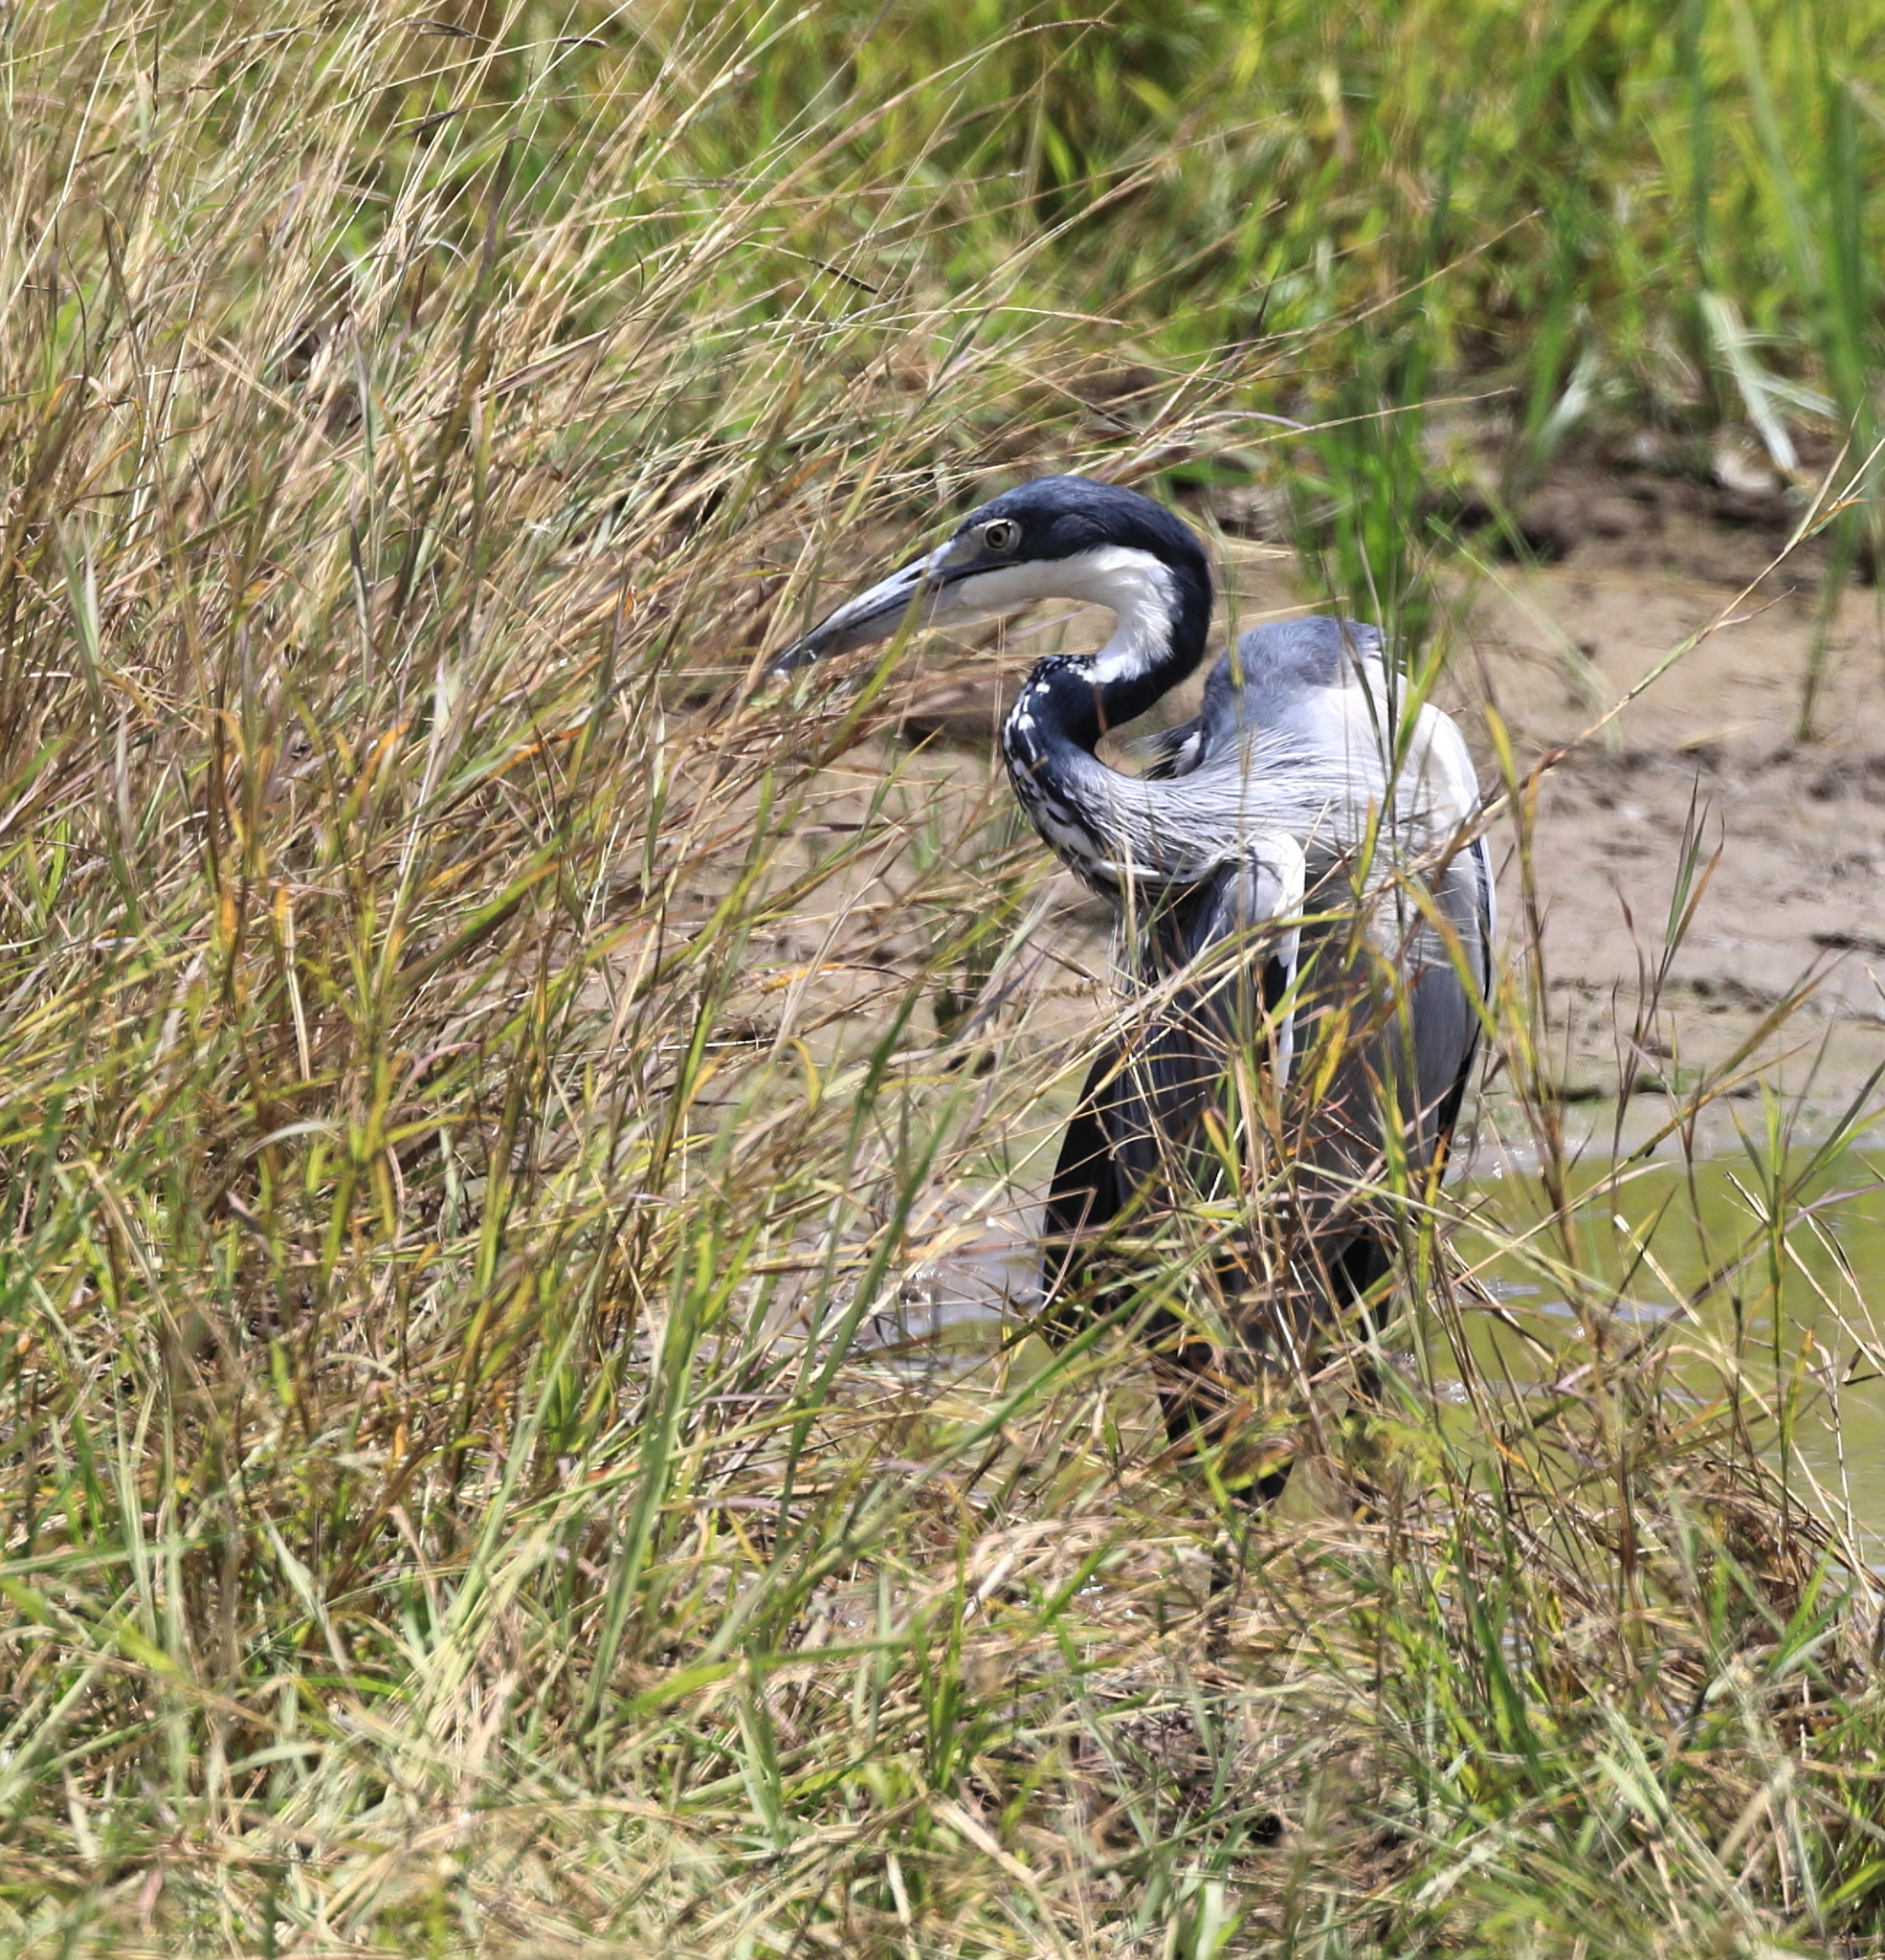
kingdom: Animalia
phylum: Chordata
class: Aves
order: Pelecaniformes
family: Ardeidae
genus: Ardea
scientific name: Ardea melanocephala
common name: Black-headed heron
